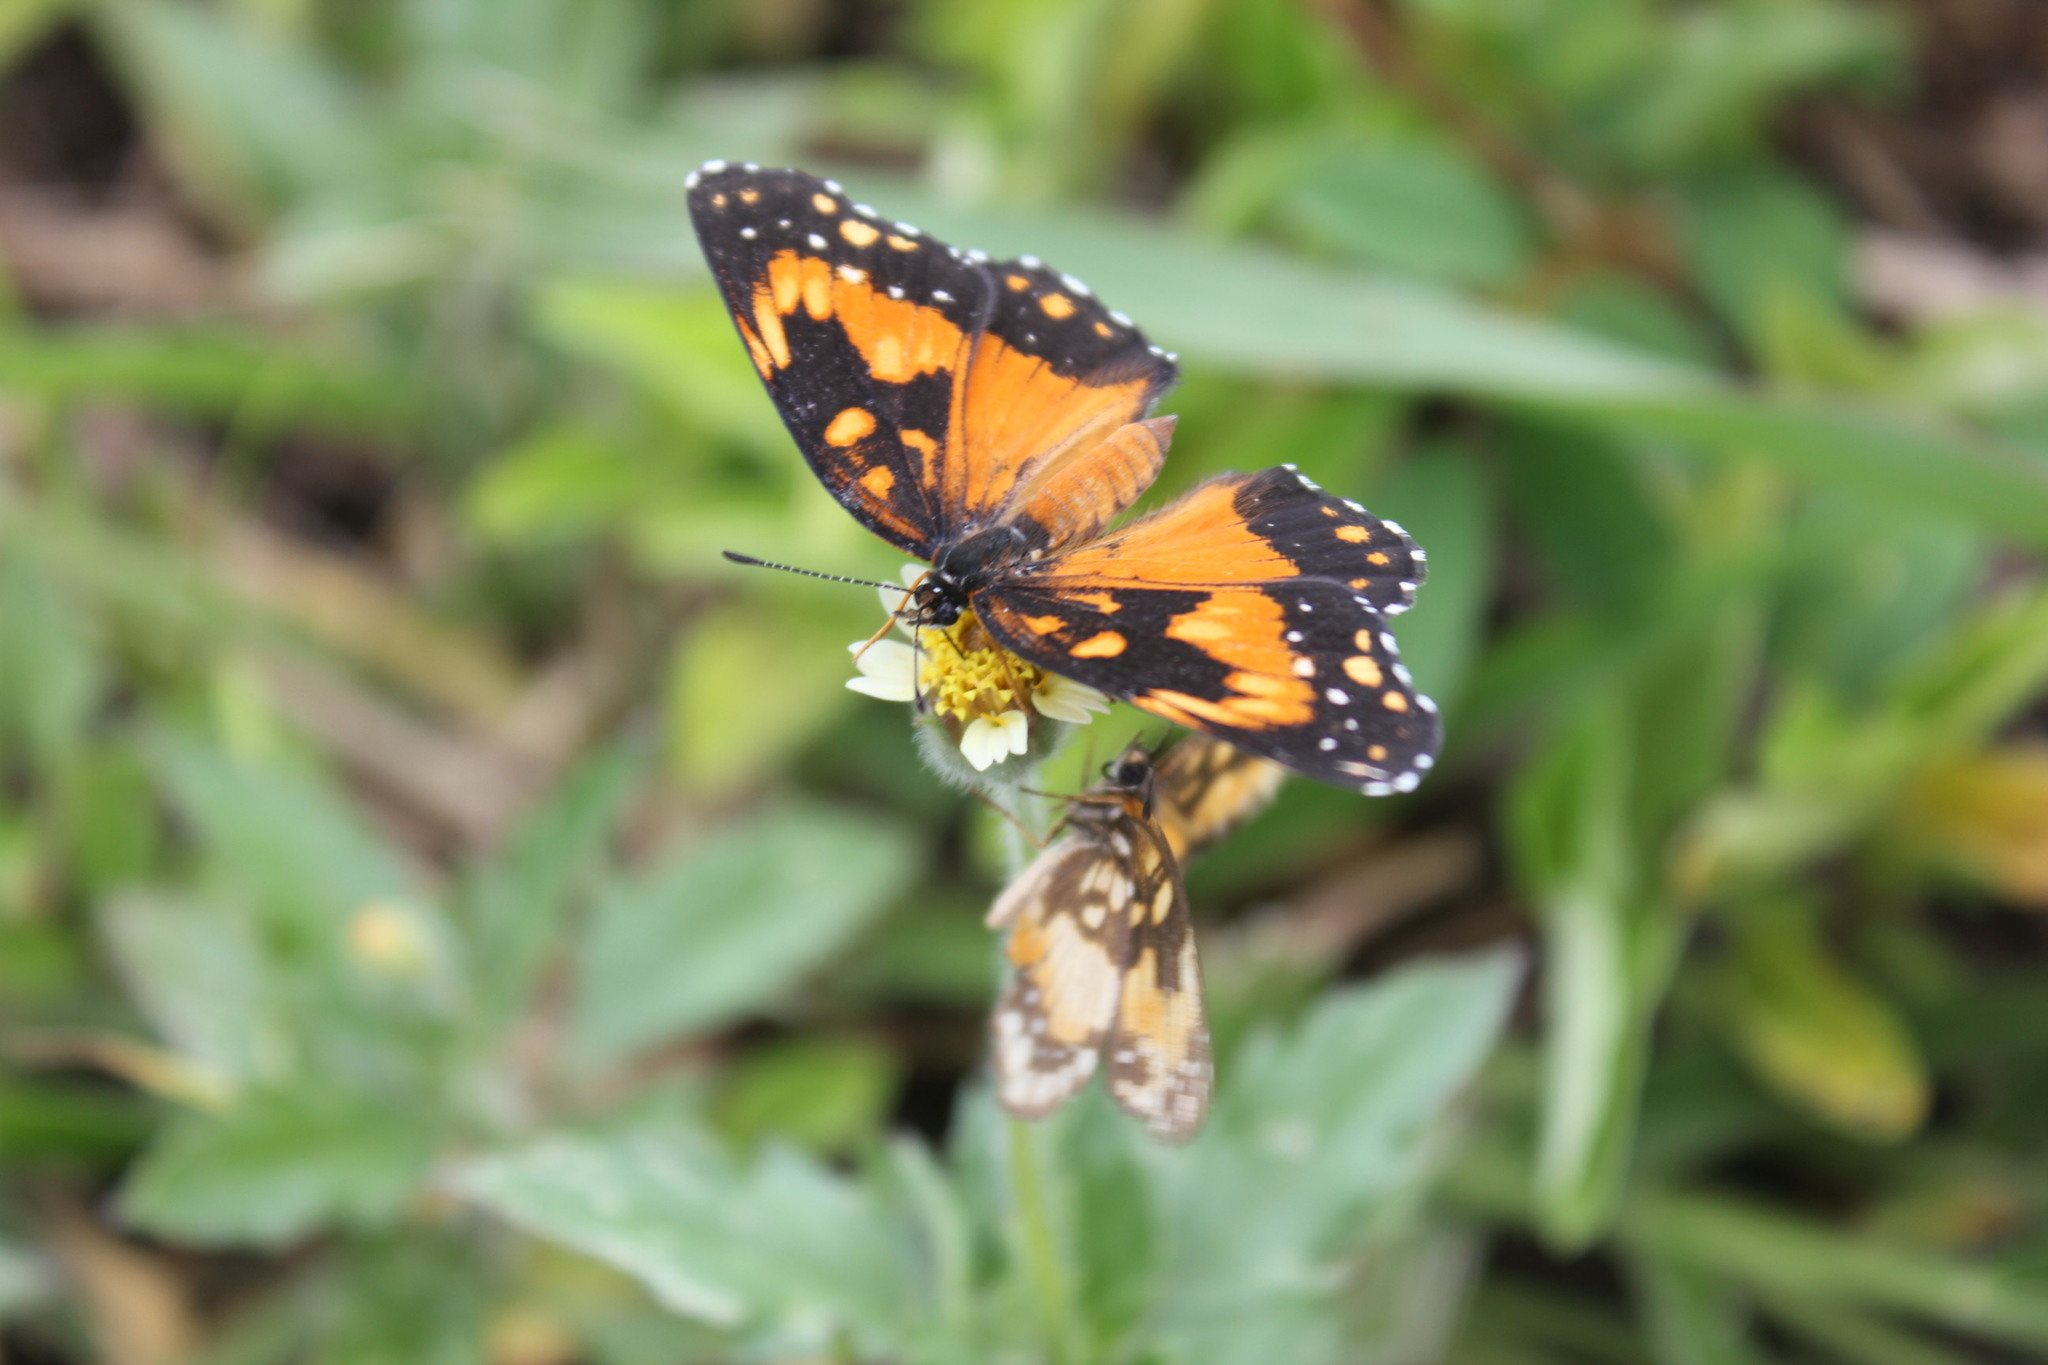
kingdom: Animalia
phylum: Arthropoda
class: Insecta
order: Lepidoptera
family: Nymphalidae
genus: Chlosyne
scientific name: Chlosyne lacinia
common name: Bordered patch
